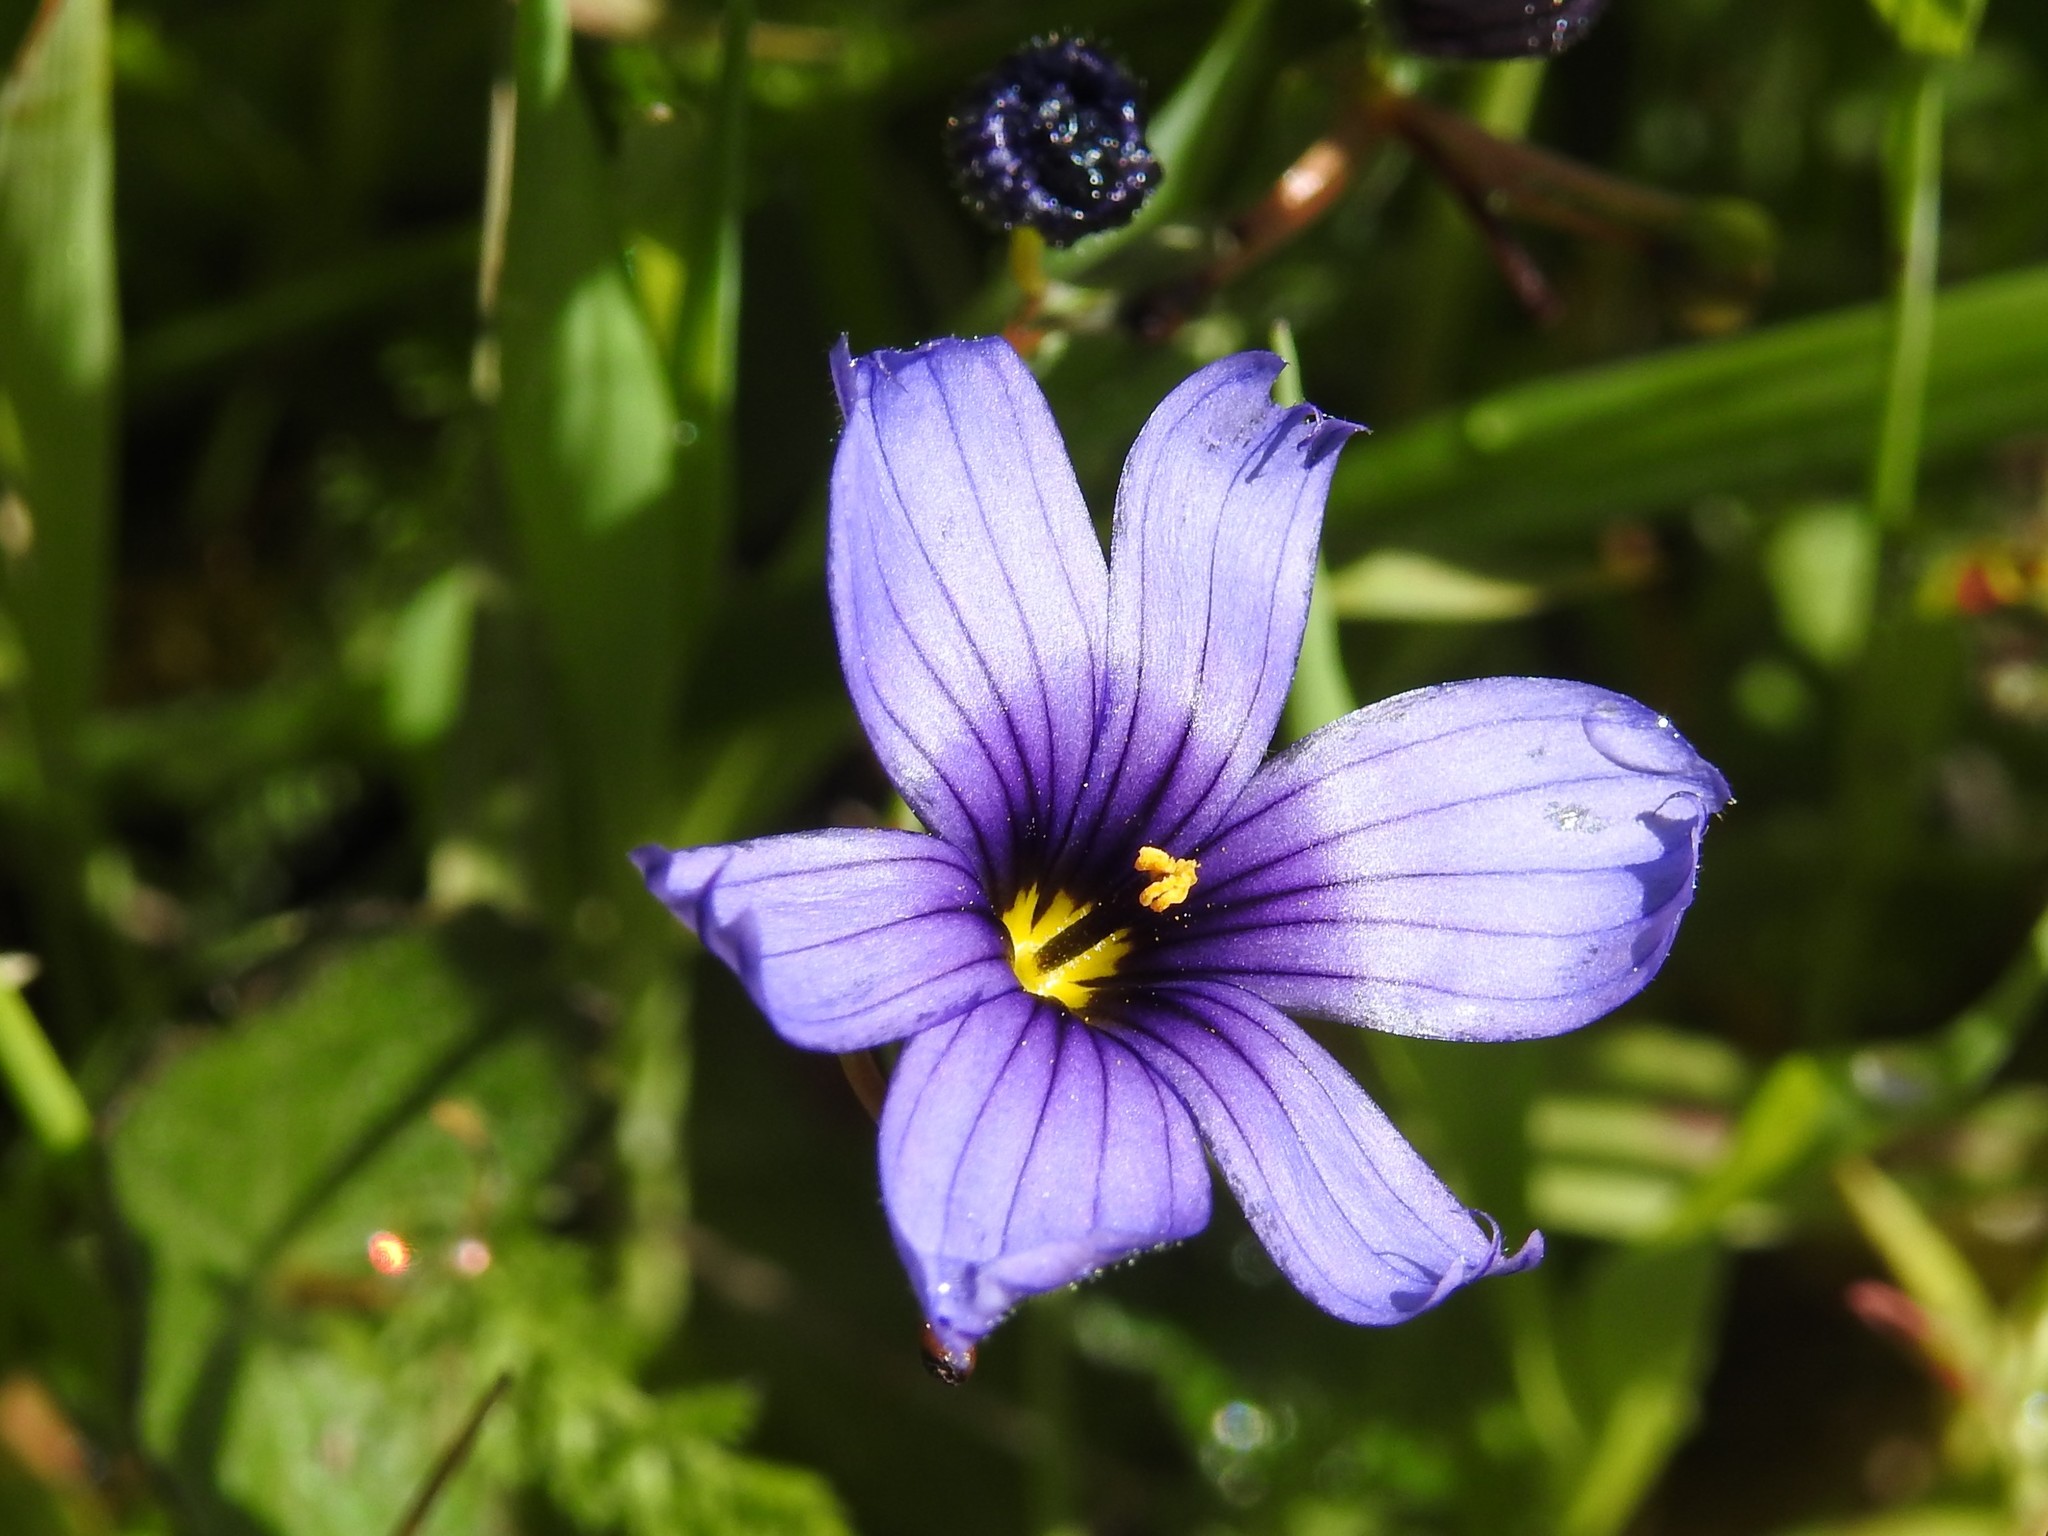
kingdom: Plantae
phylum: Tracheophyta
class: Liliopsida
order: Asparagales
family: Iridaceae
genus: Sisyrinchium
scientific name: Sisyrinchium bellum
